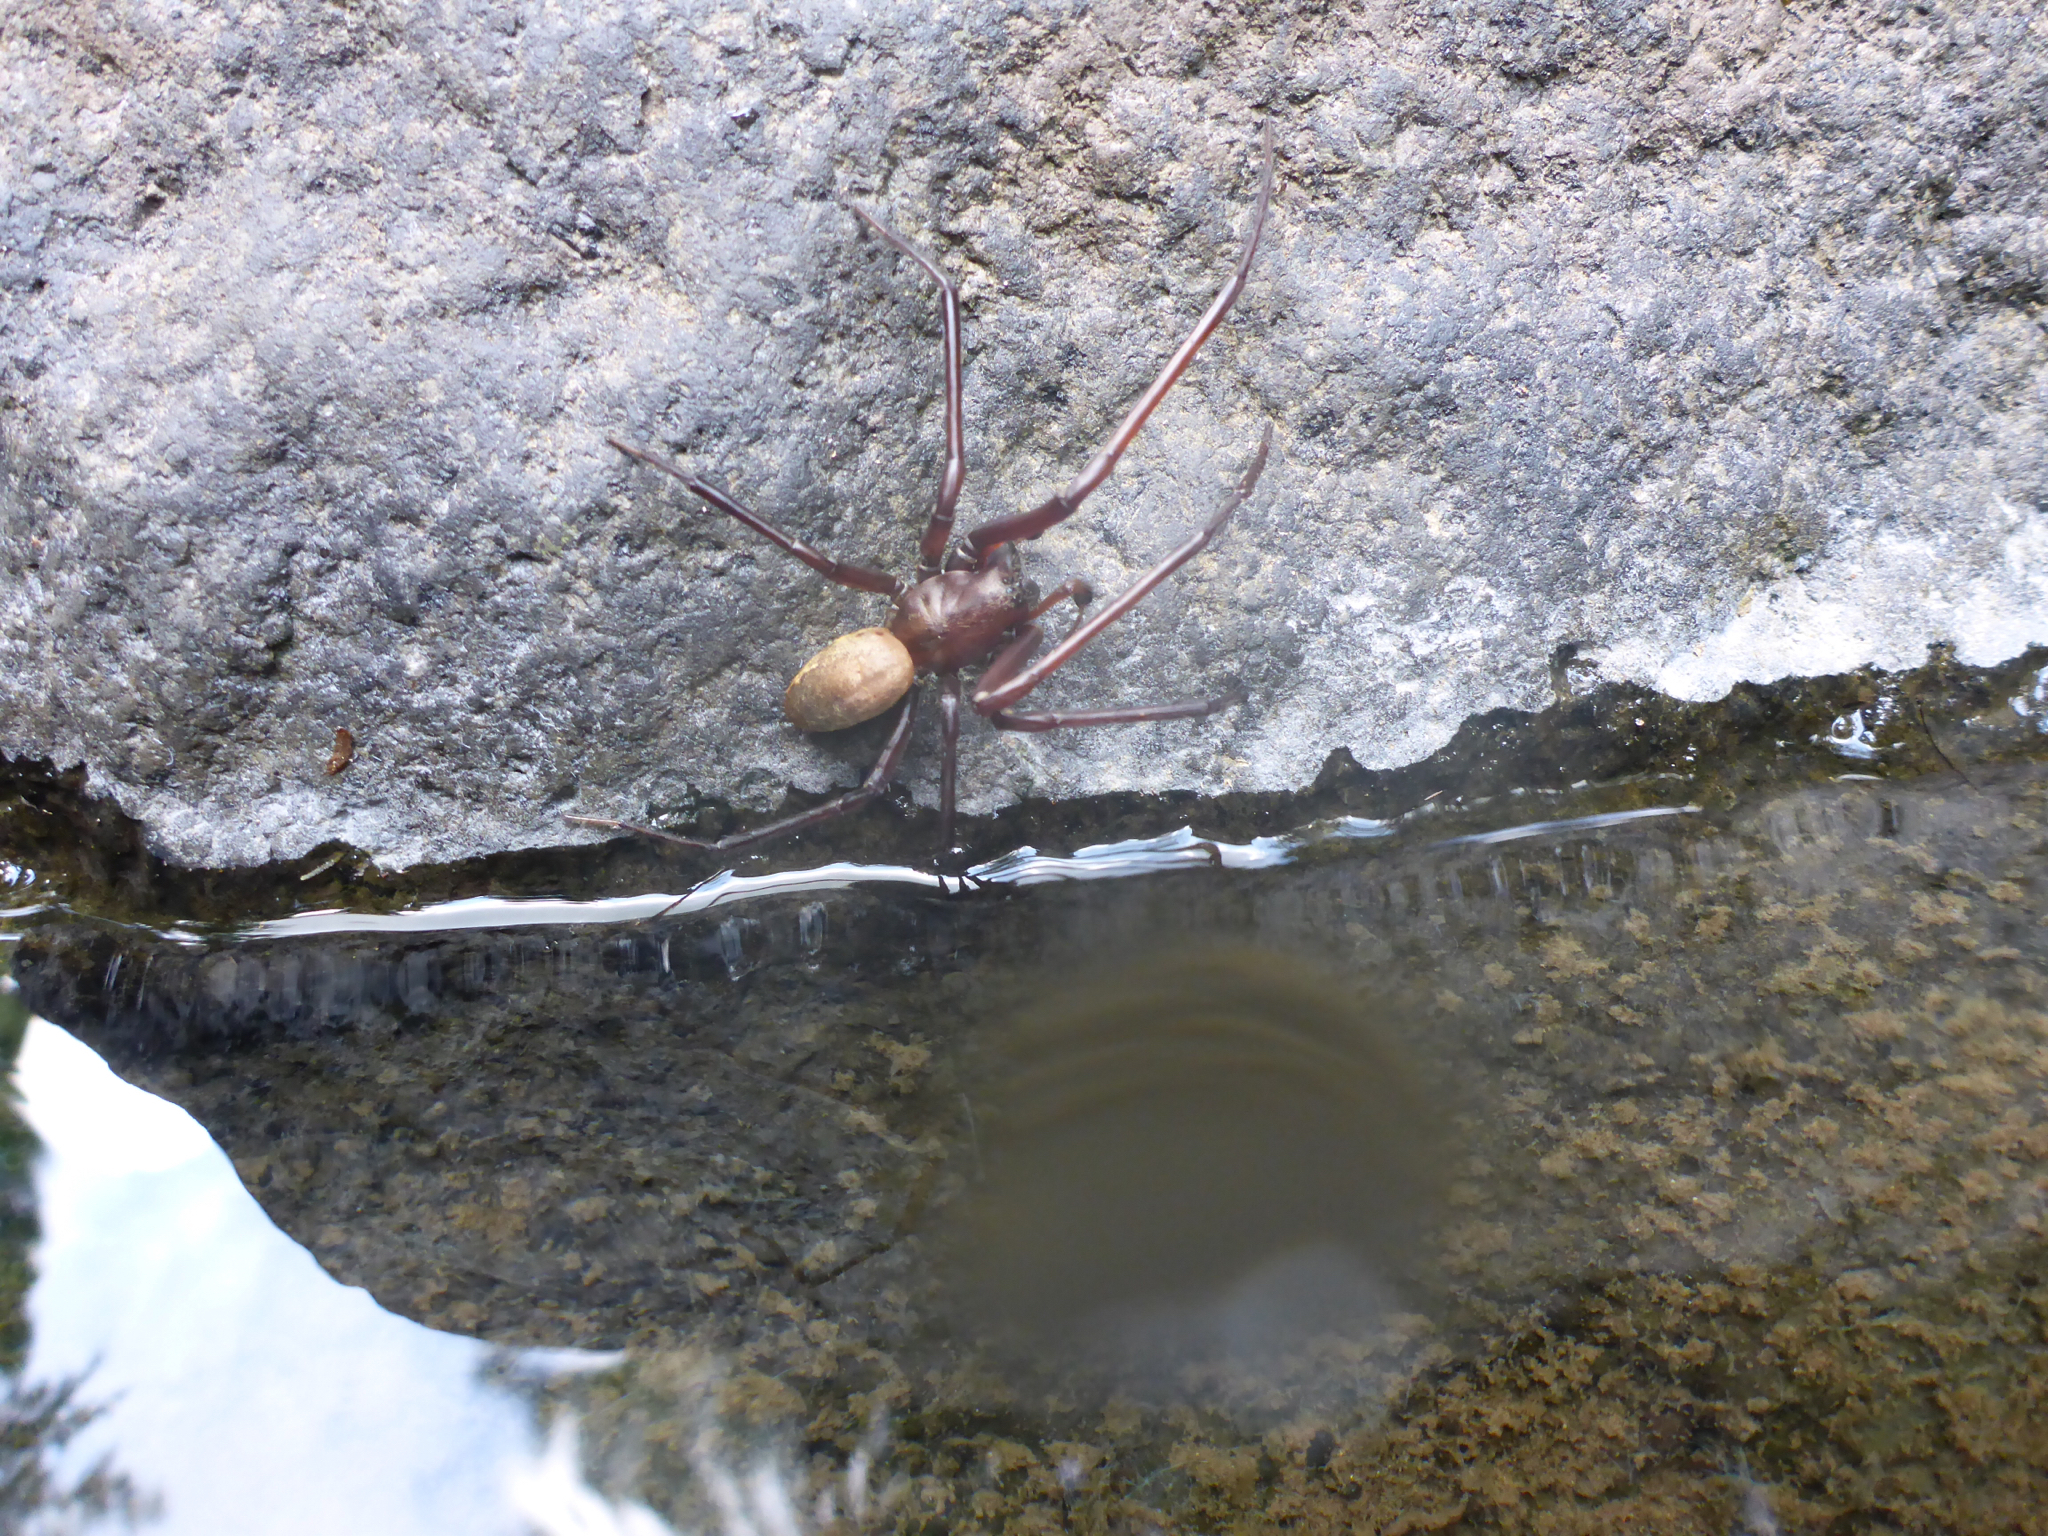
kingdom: Animalia
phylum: Arthropoda
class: Arachnida
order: Araneae
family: Desidae
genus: Cambridgea
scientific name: Cambridgea foliata
